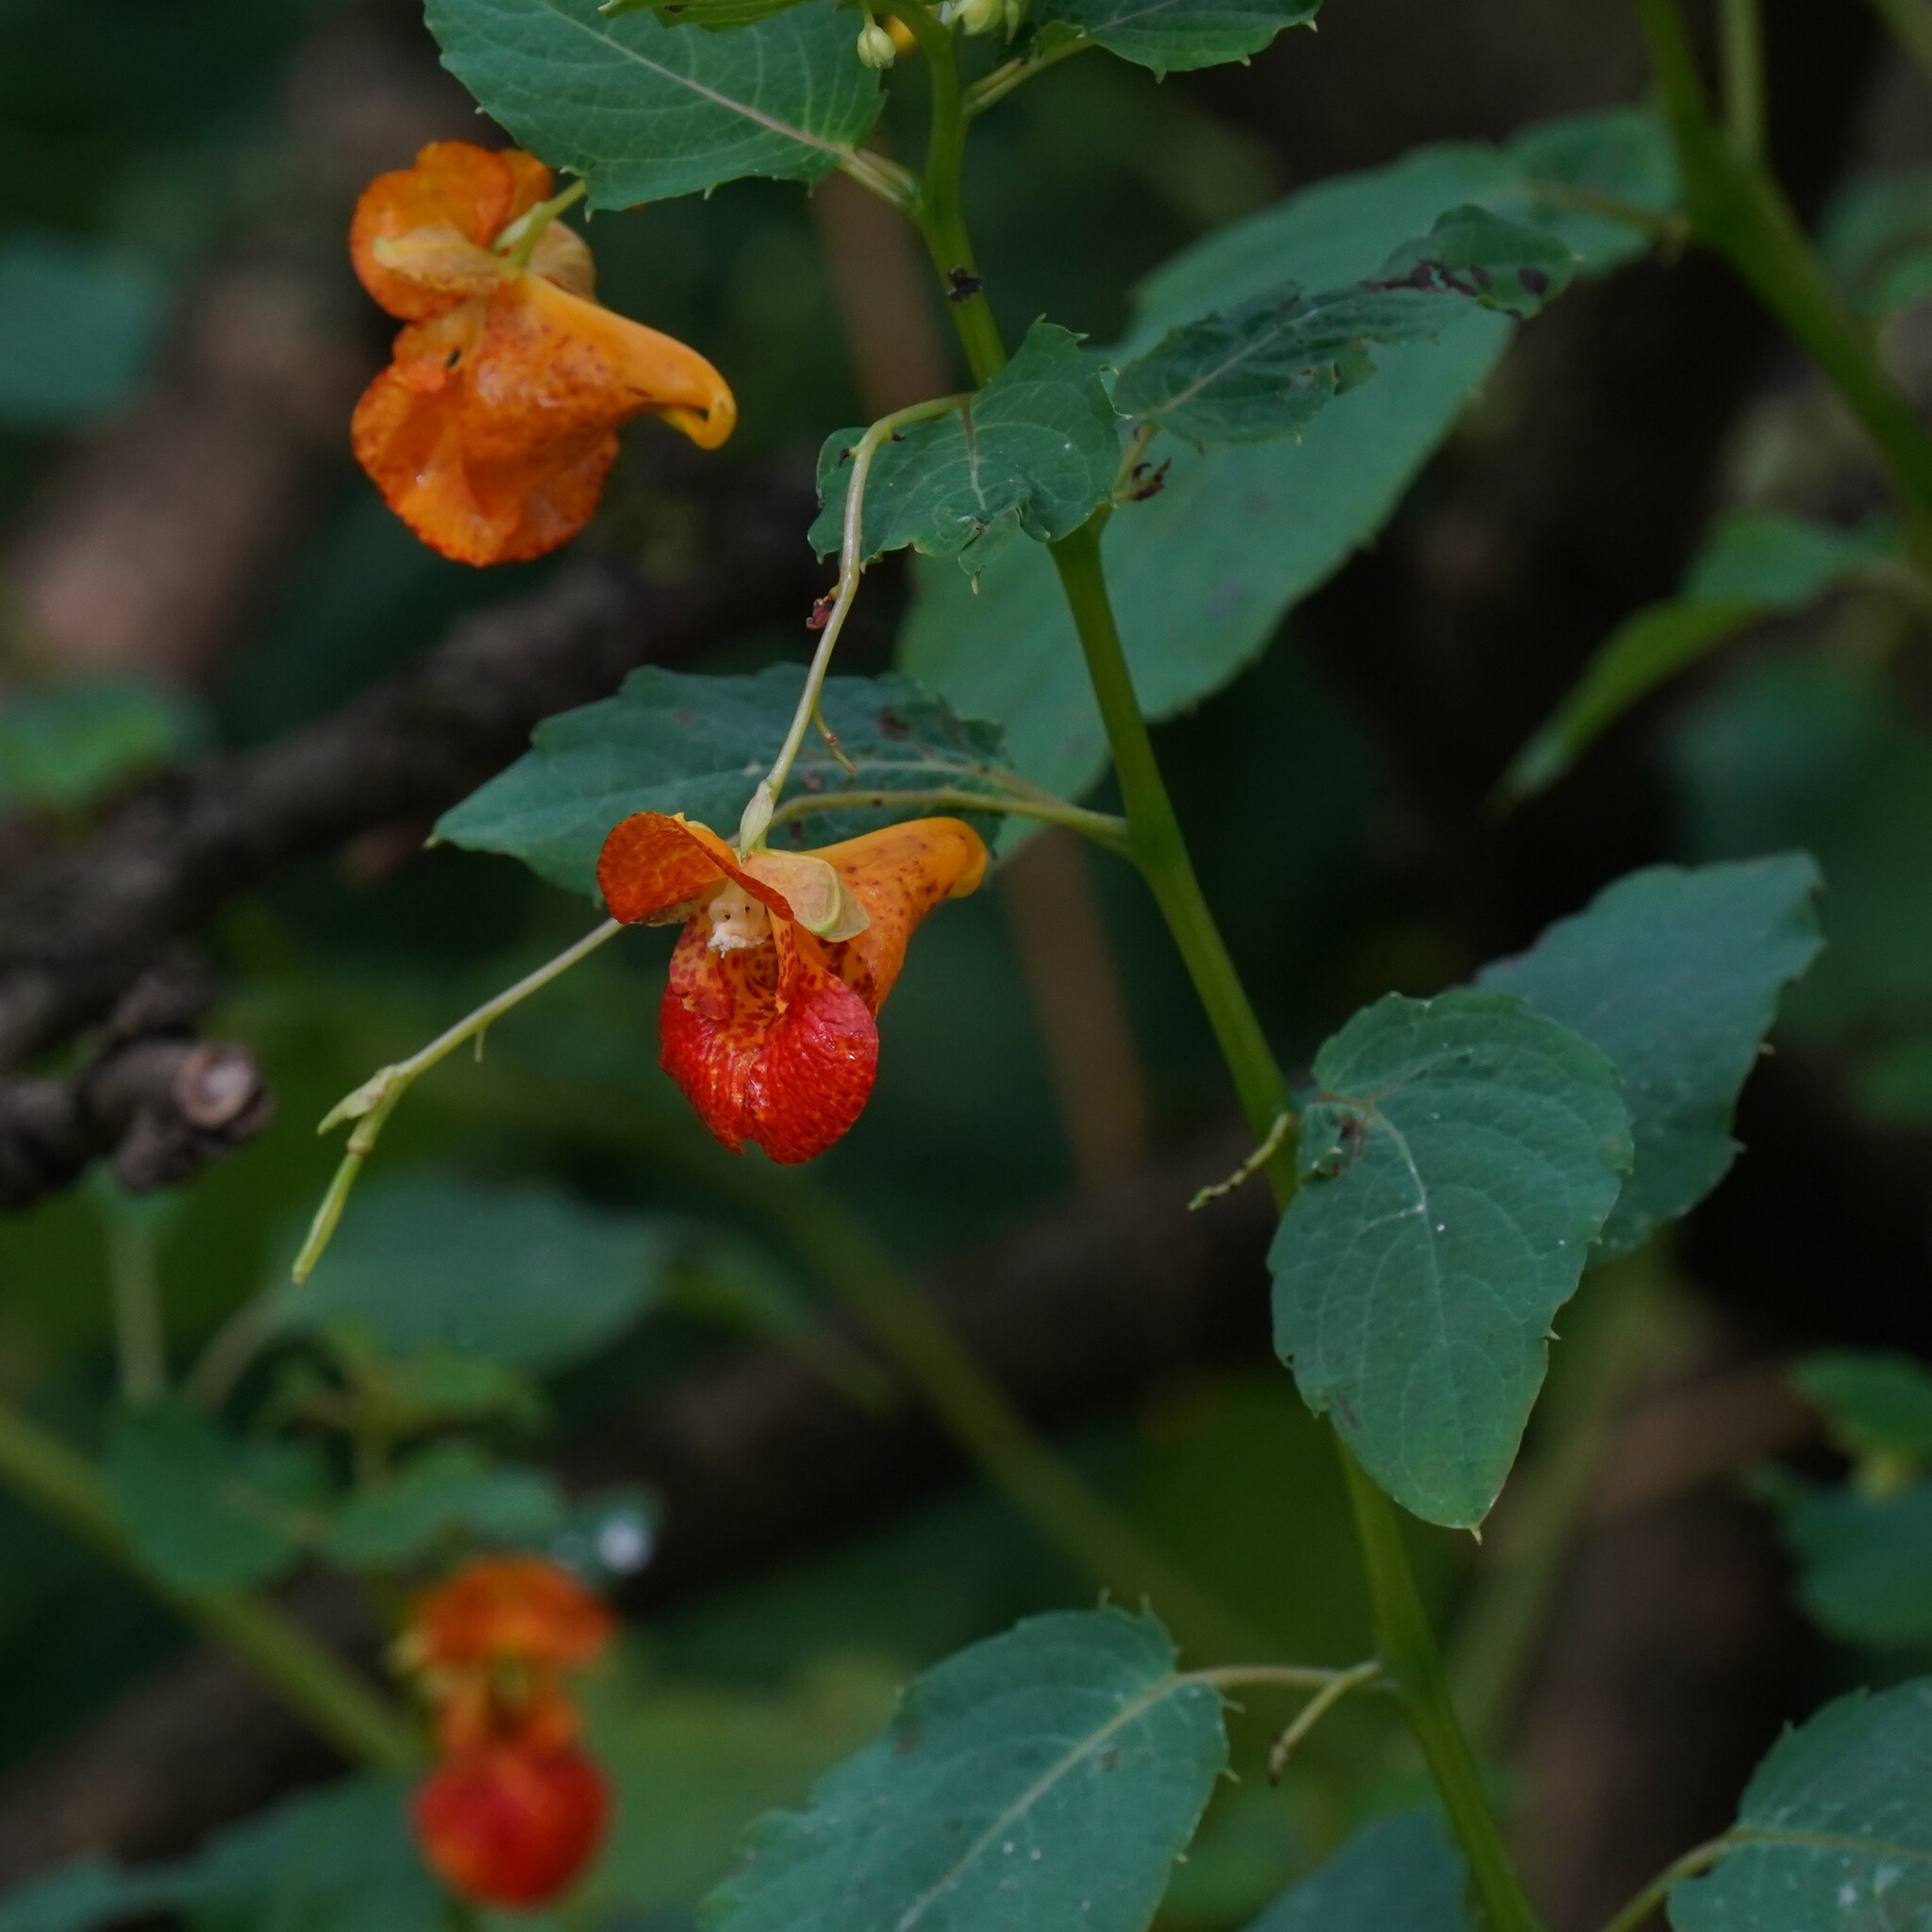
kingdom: Plantae
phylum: Tracheophyta
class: Magnoliopsida
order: Ericales
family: Balsaminaceae
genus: Impatiens
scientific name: Impatiens capensis
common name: Orange balsam
